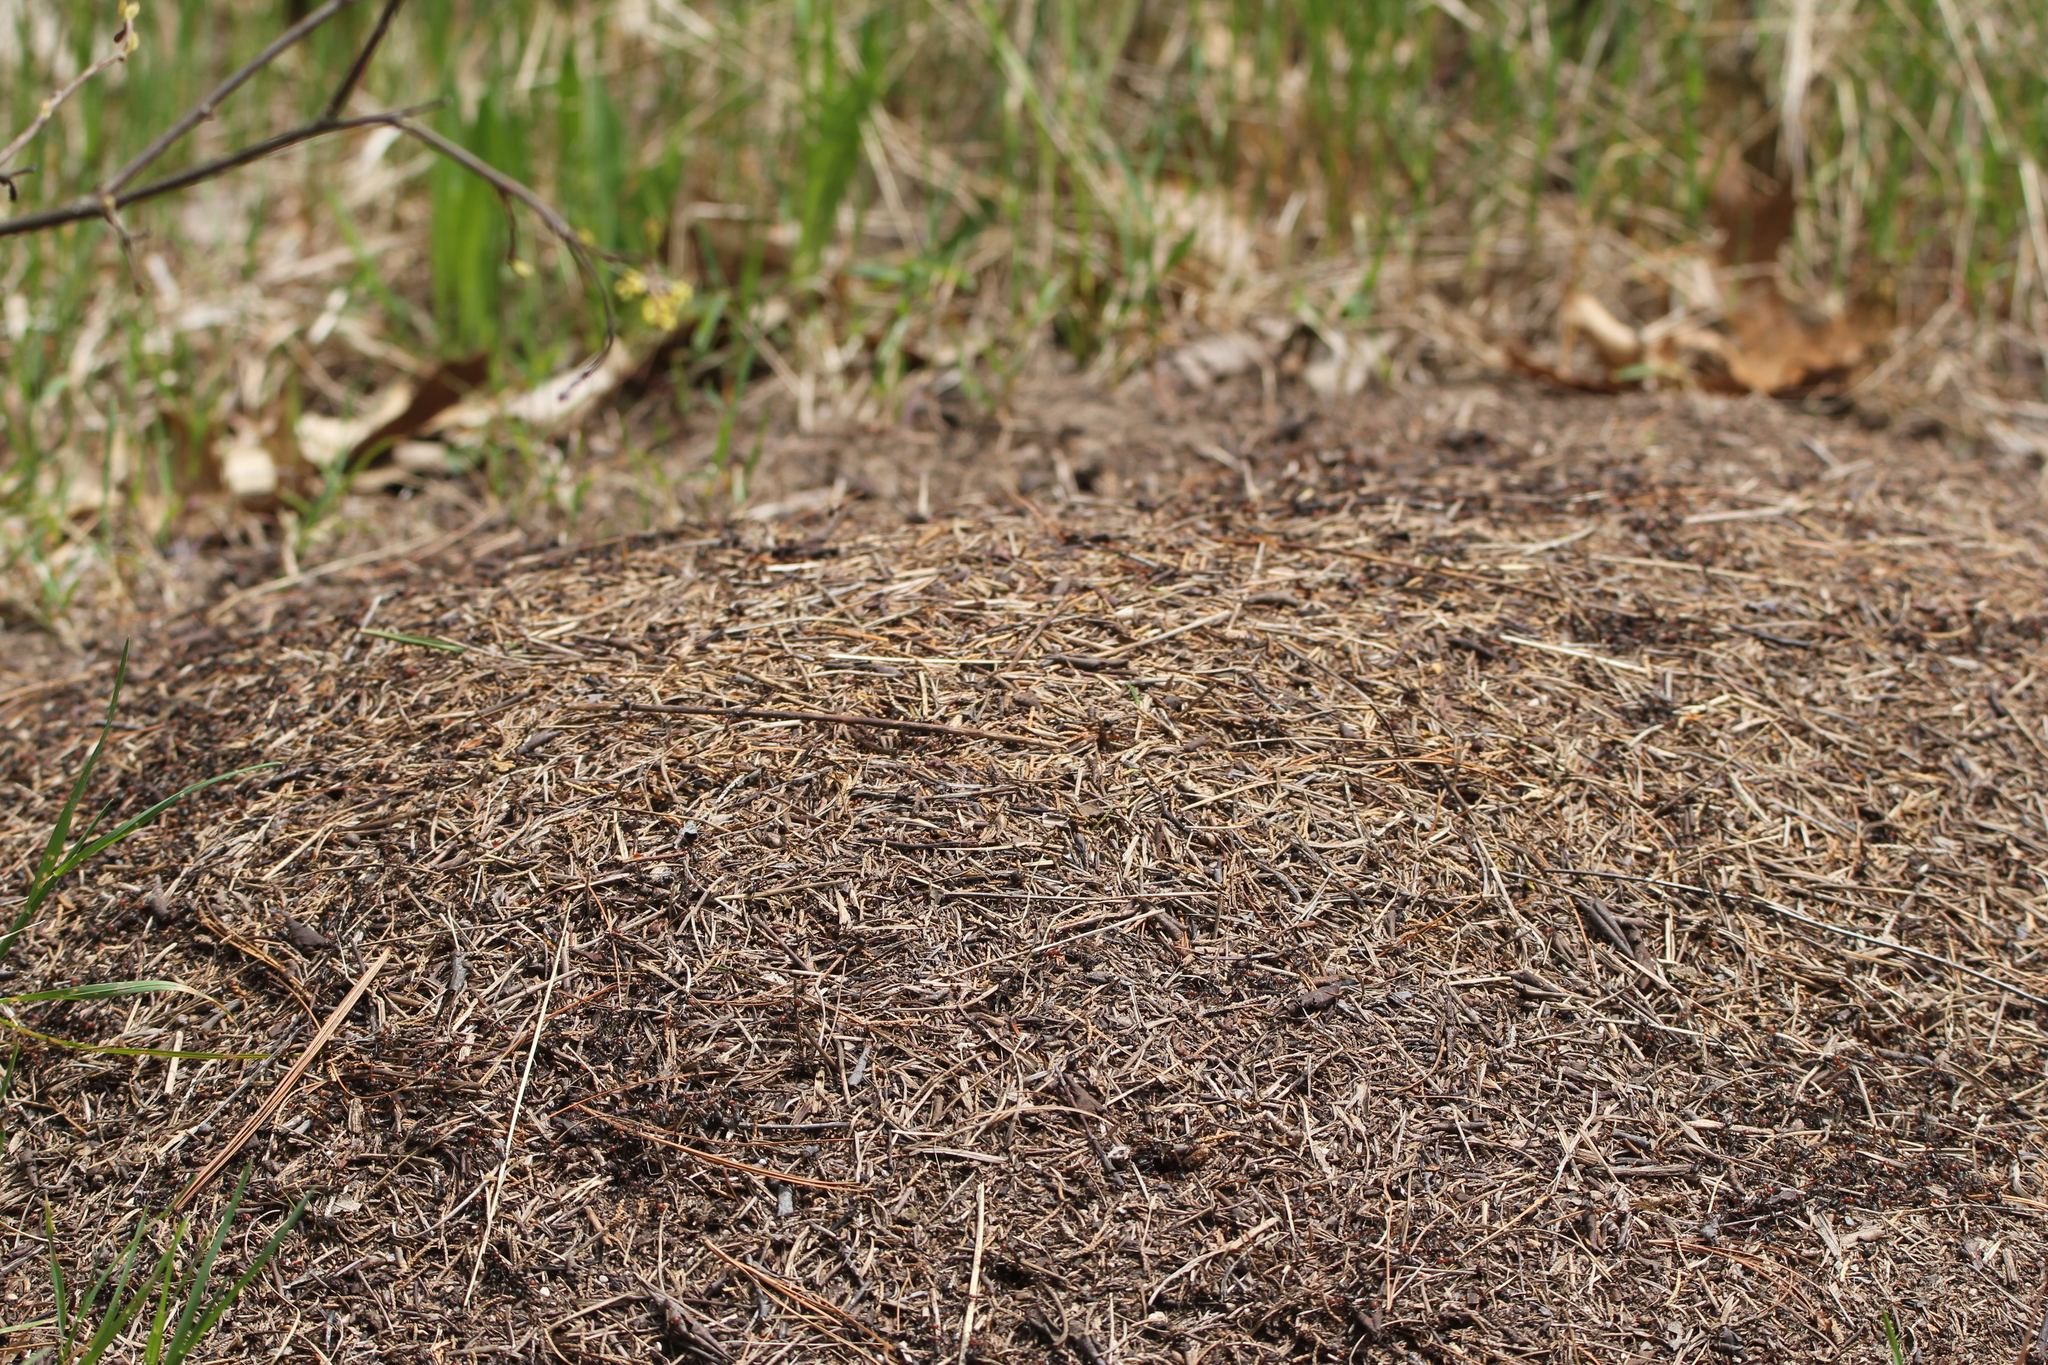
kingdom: Animalia
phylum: Arthropoda
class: Insecta
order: Hymenoptera
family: Formicidae
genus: Formica
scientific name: Formica obscuripes
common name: Western thatching ant
